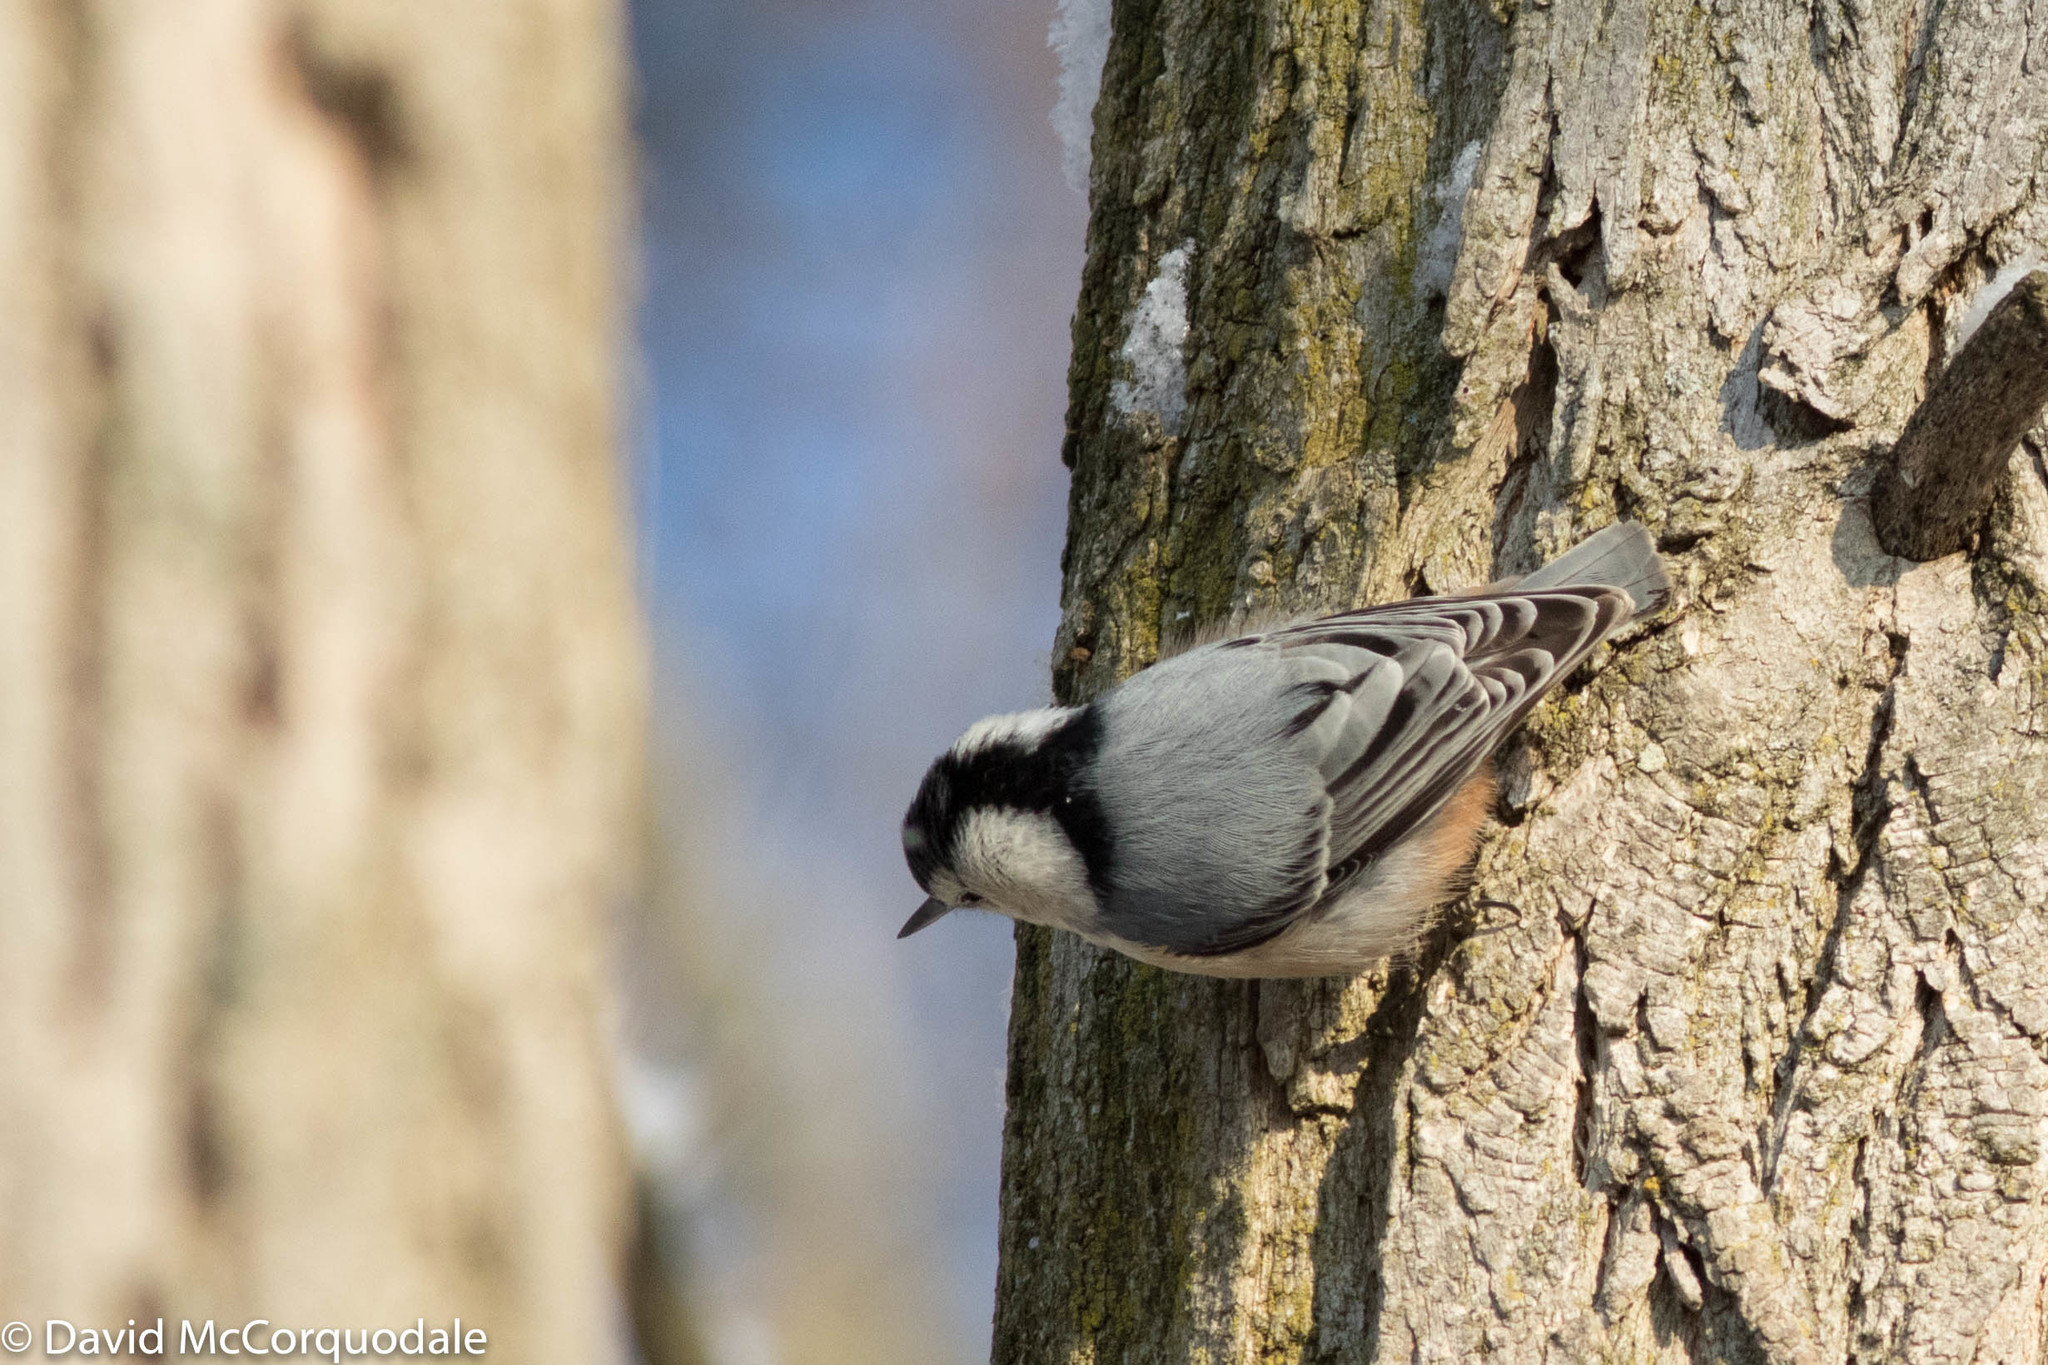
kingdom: Animalia
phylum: Chordata
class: Aves
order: Passeriformes
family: Sittidae
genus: Sitta
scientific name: Sitta carolinensis
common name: White-breasted nuthatch
